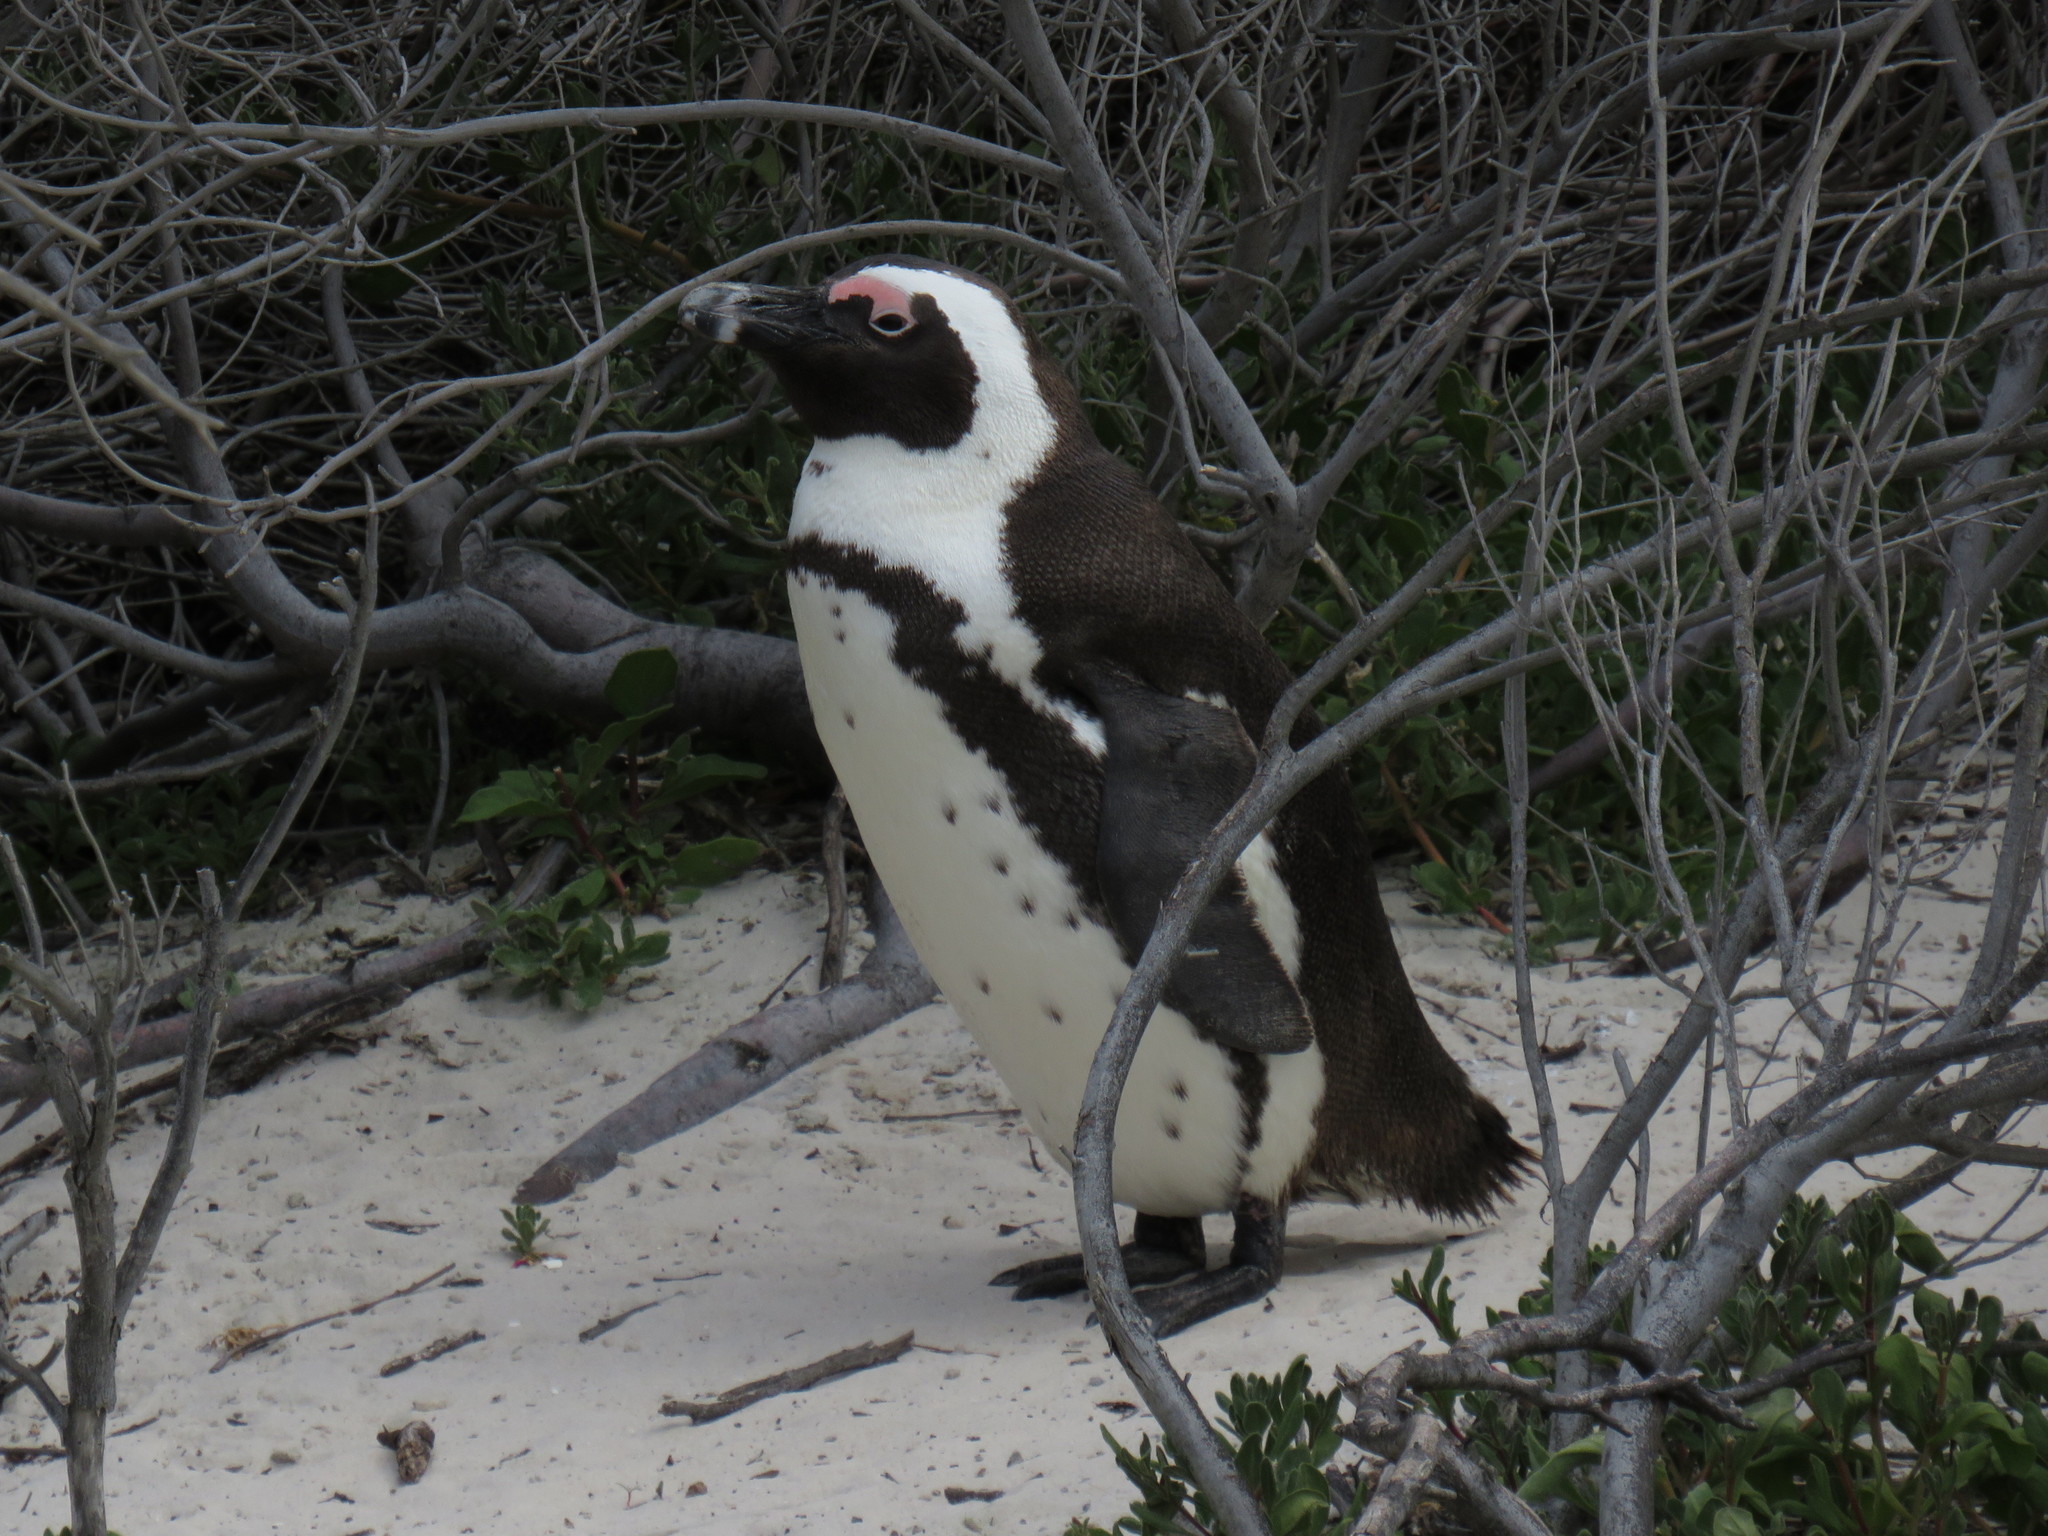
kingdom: Animalia
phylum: Chordata
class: Aves
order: Sphenisciformes
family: Spheniscidae
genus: Spheniscus
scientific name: Spheniscus demersus
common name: African penguin
